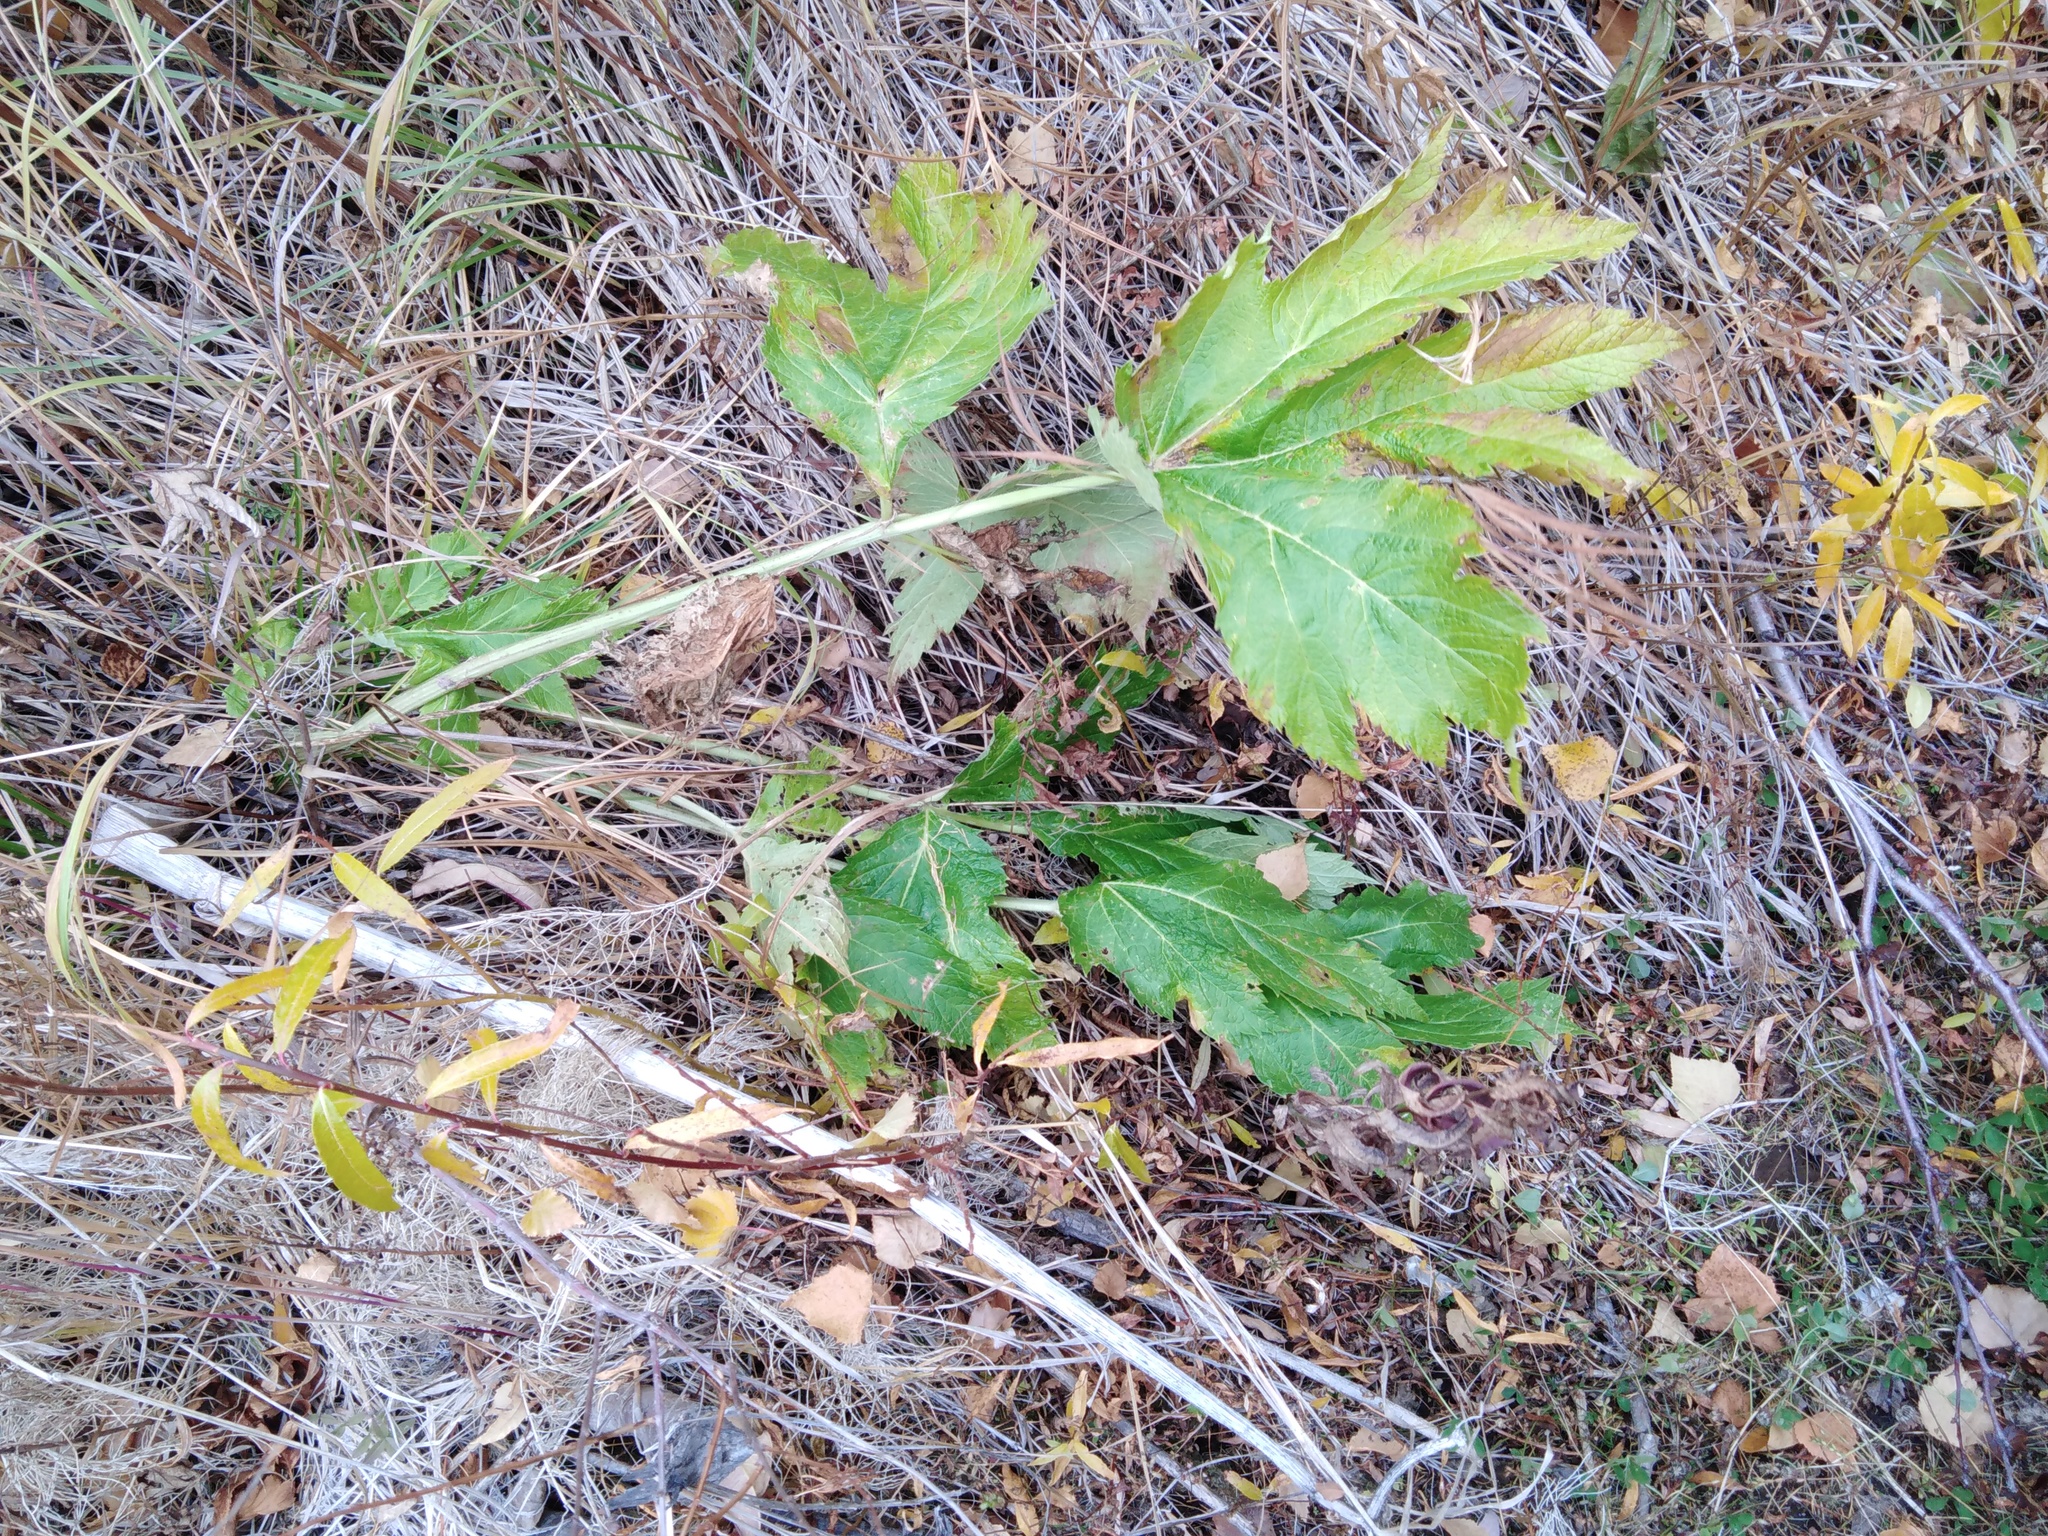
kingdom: Plantae
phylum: Tracheophyta
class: Magnoliopsida
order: Apiales
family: Apiaceae
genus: Heracleum
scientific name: Heracleum maximum
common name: American cow parsnip
